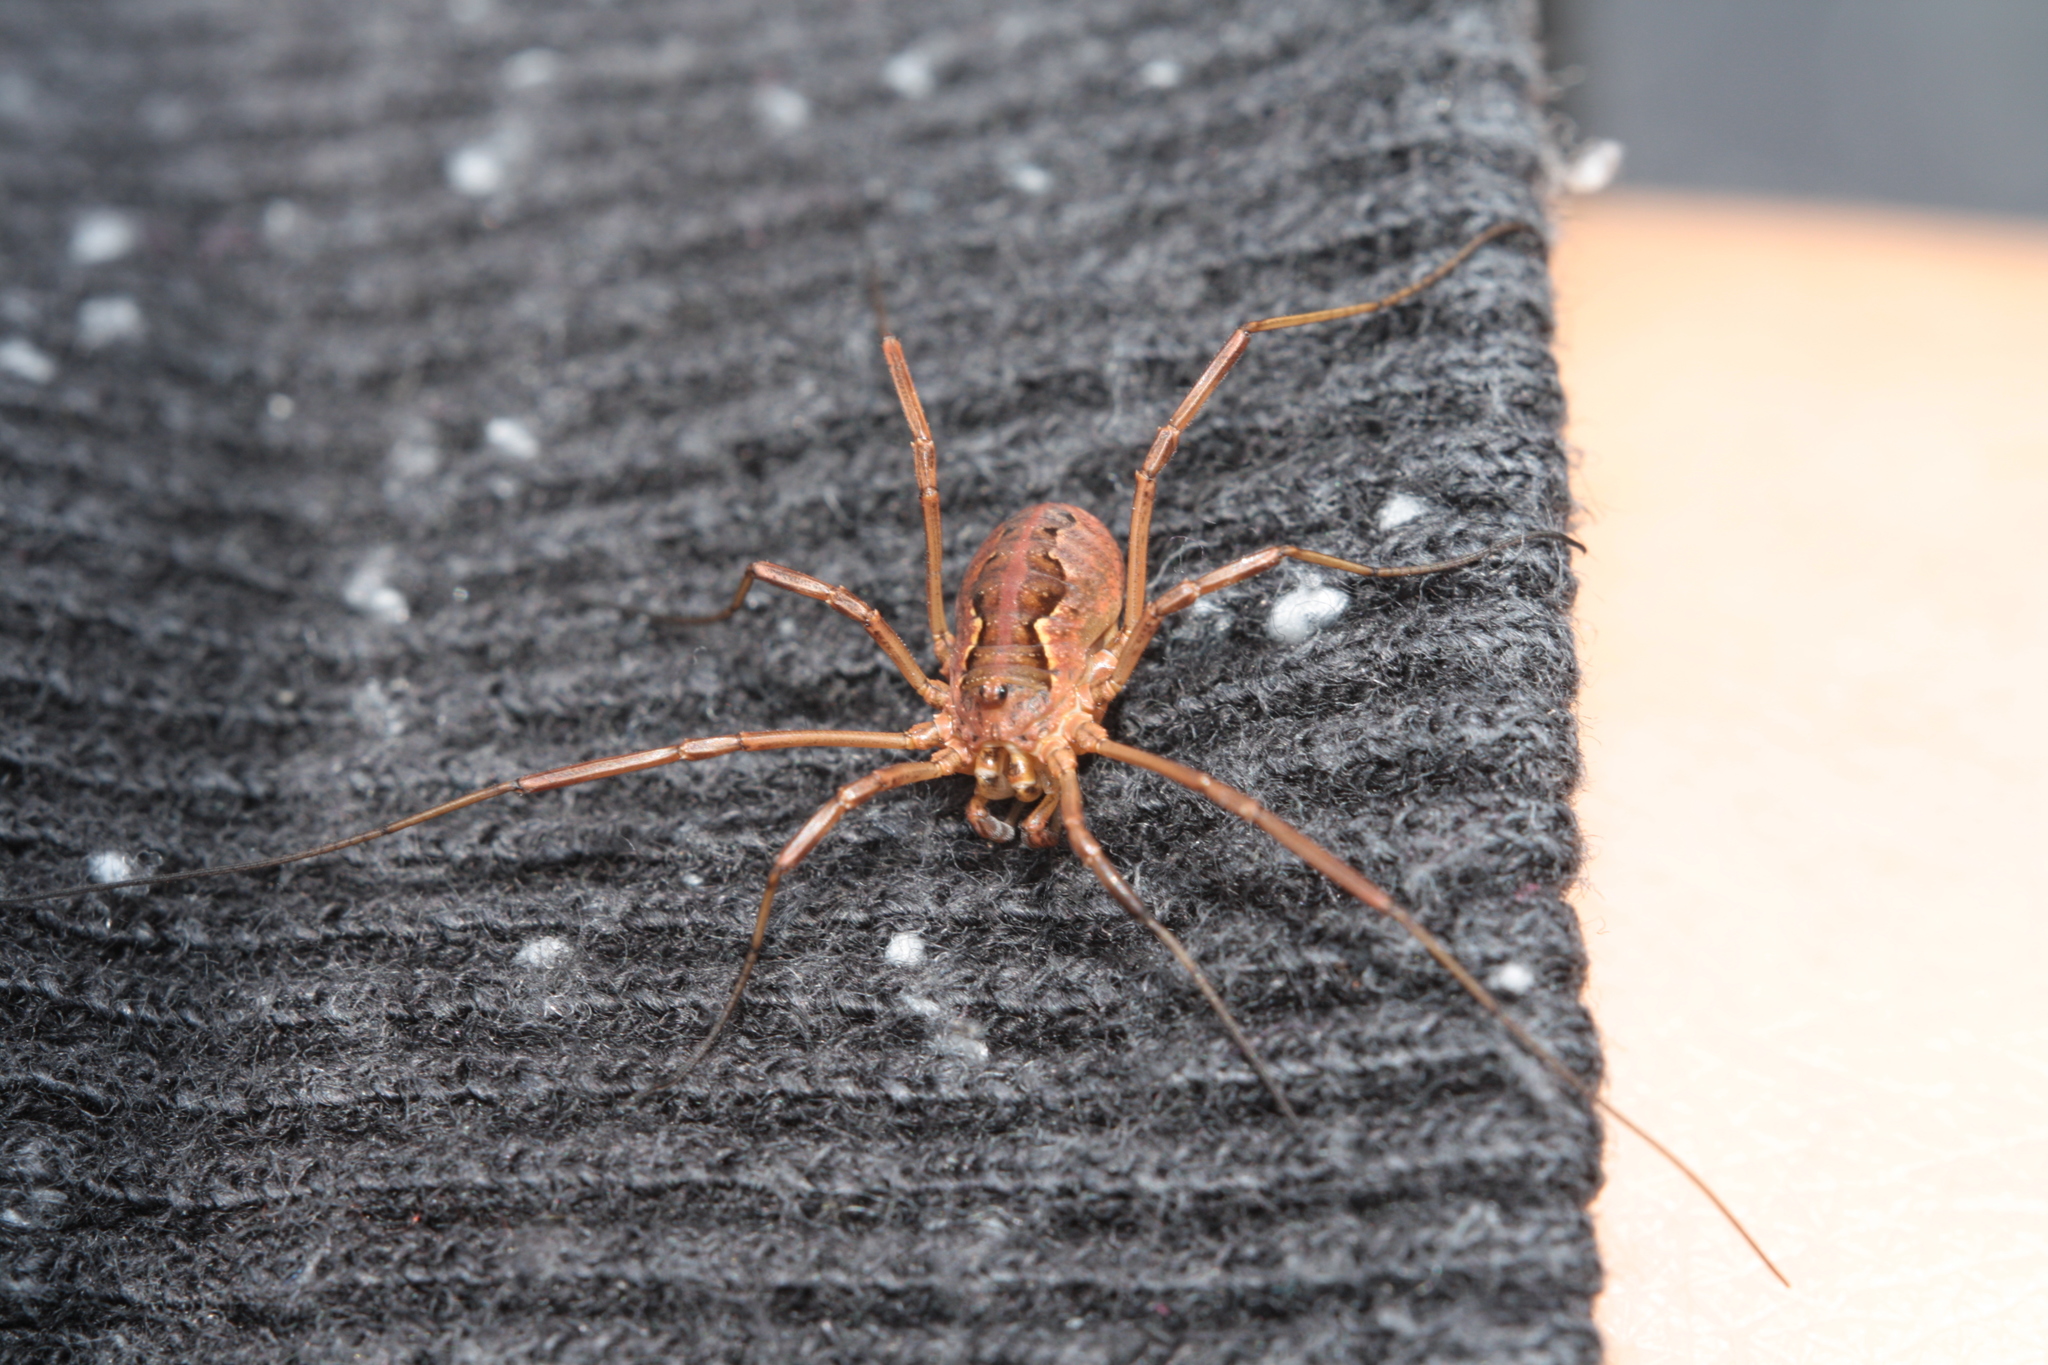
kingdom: Animalia
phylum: Arthropoda
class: Arachnida
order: Opiliones
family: Phalangiidae
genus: Mitopus
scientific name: Mitopus morio
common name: Saddleback harvestman
